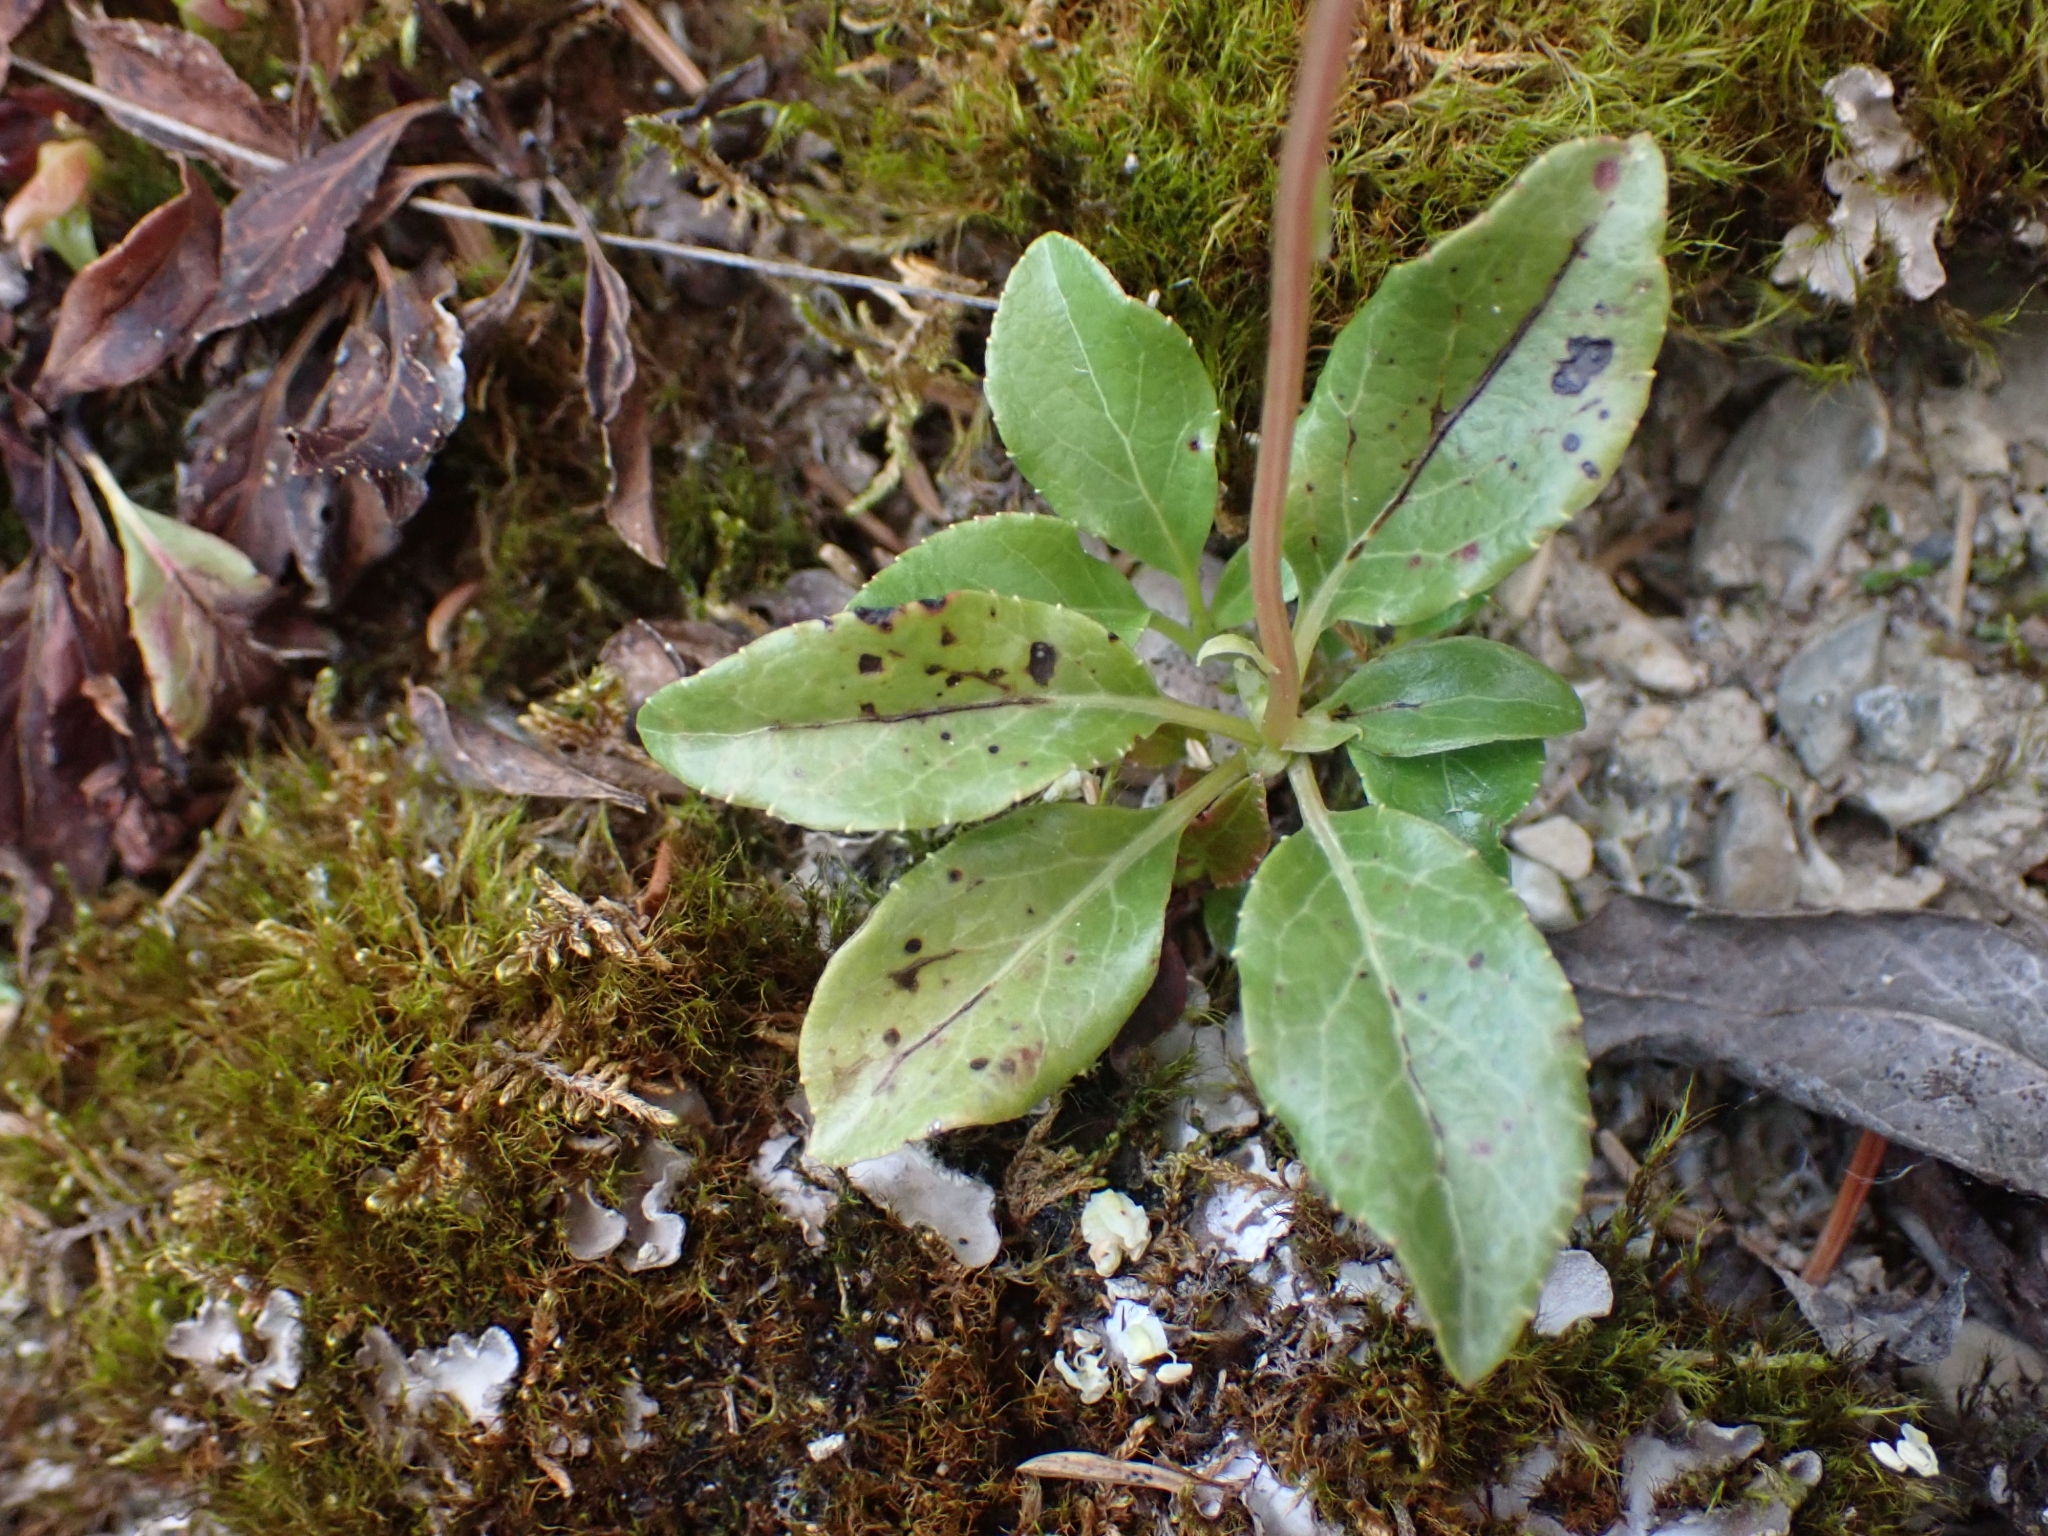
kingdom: Plantae
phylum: Tracheophyta
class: Magnoliopsida
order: Ericales
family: Ericaceae
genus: Orthilia
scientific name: Orthilia secunda
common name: One-sided orthilia
